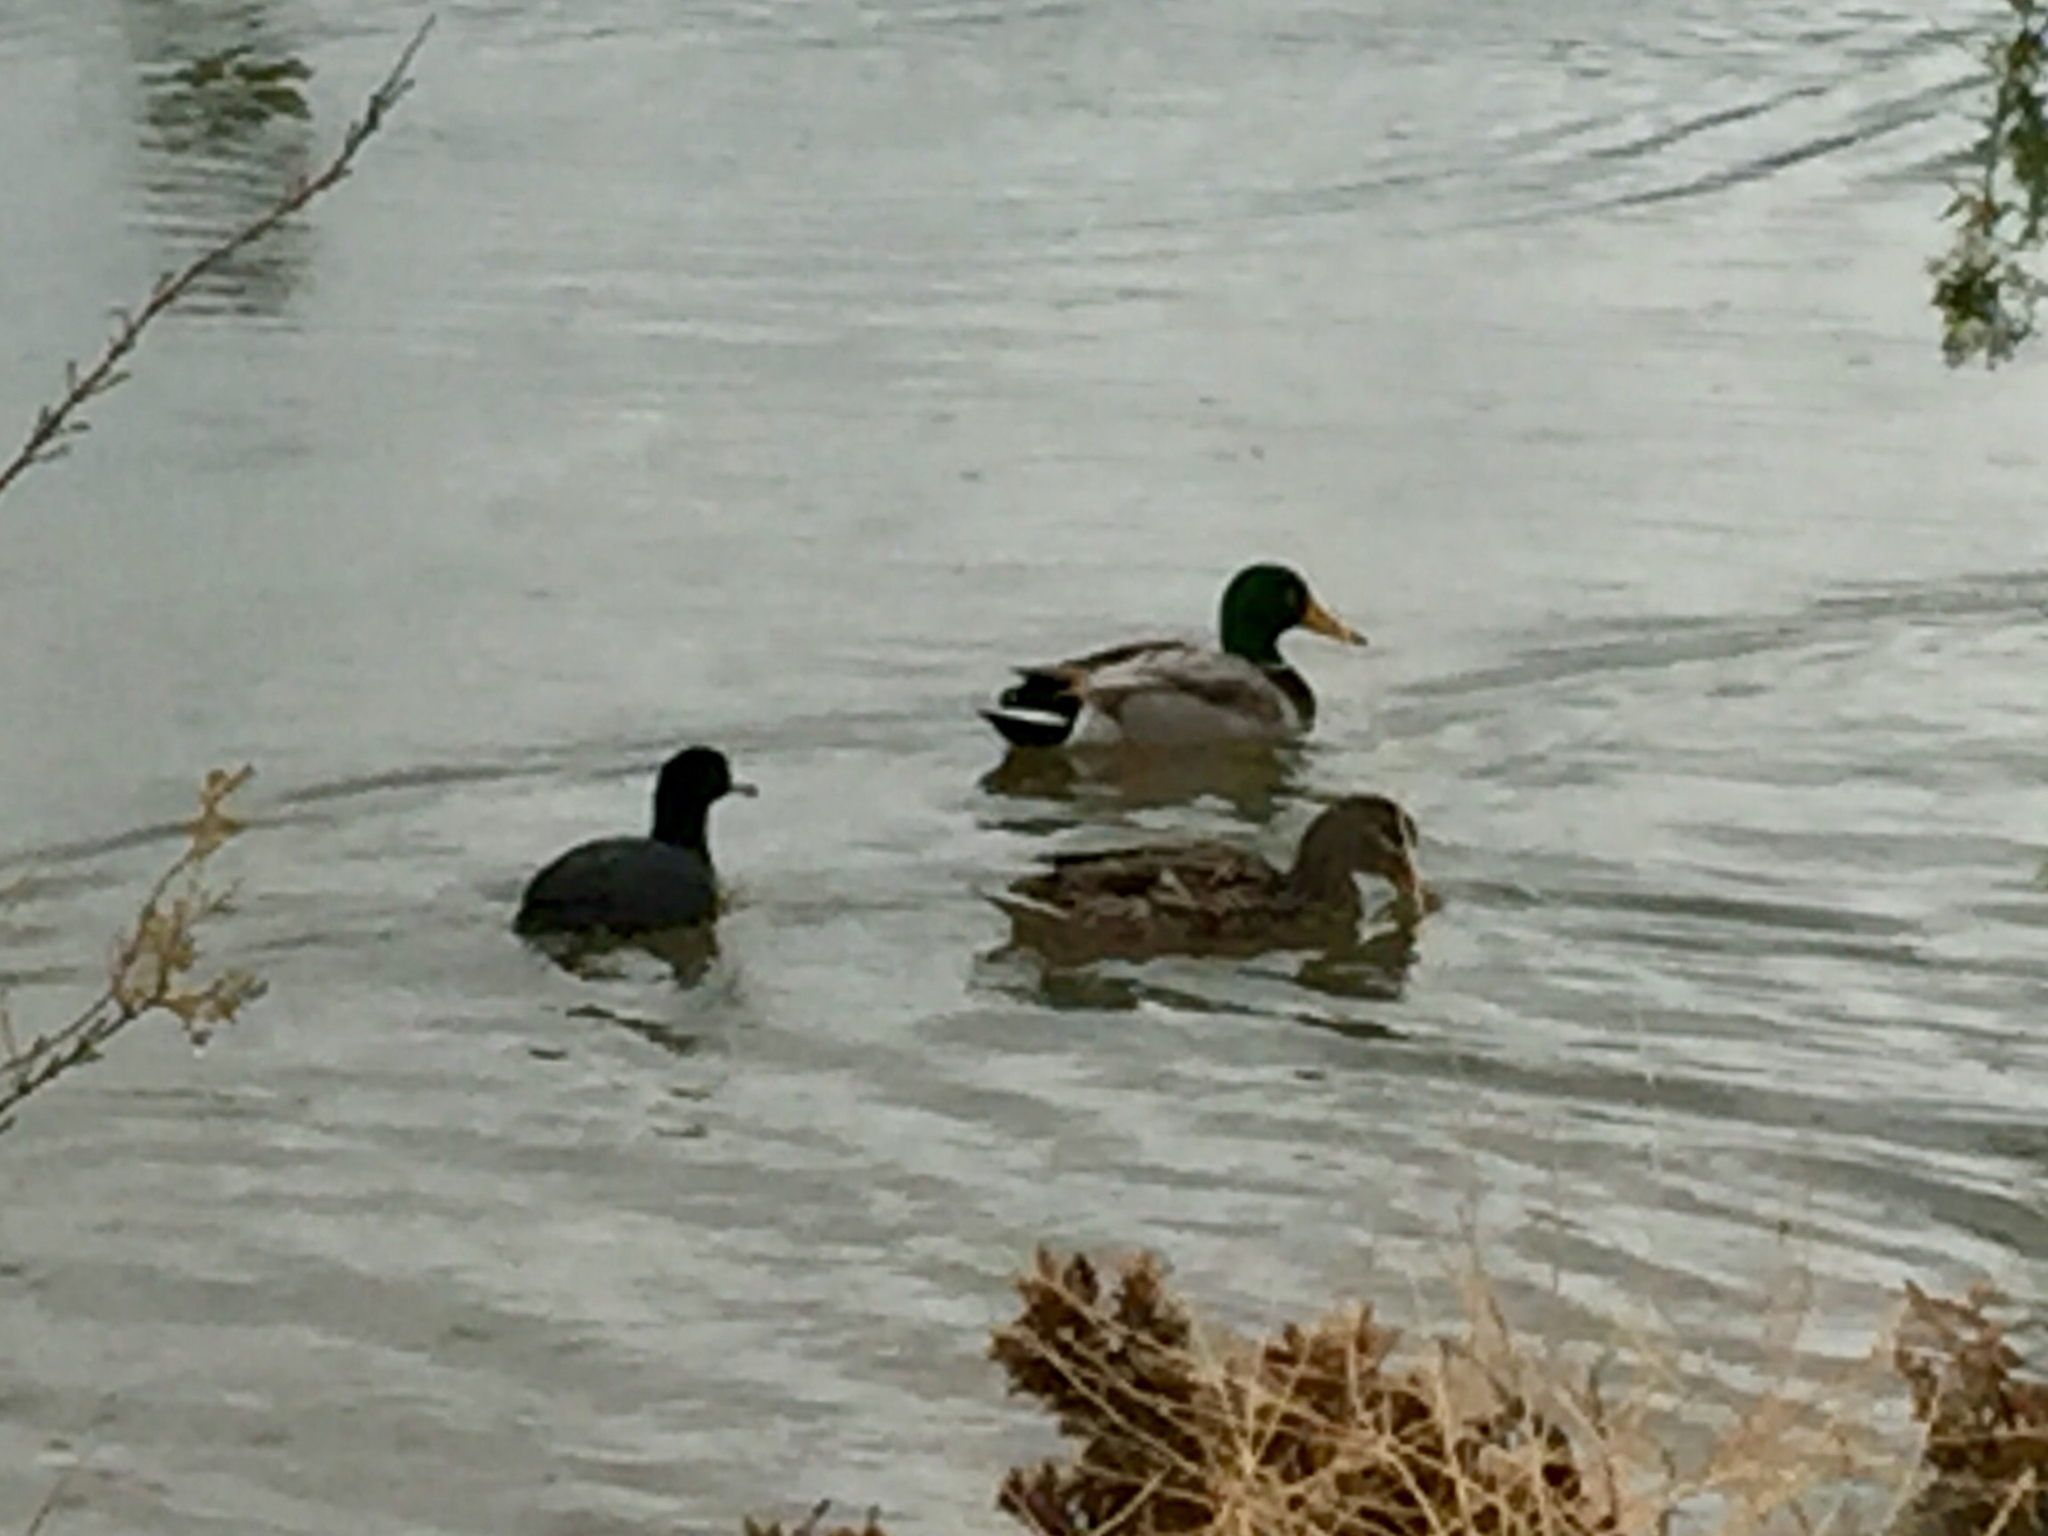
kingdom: Animalia
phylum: Chordata
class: Aves
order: Anseriformes
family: Anatidae
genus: Anas
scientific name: Anas platyrhynchos
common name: Mallard
